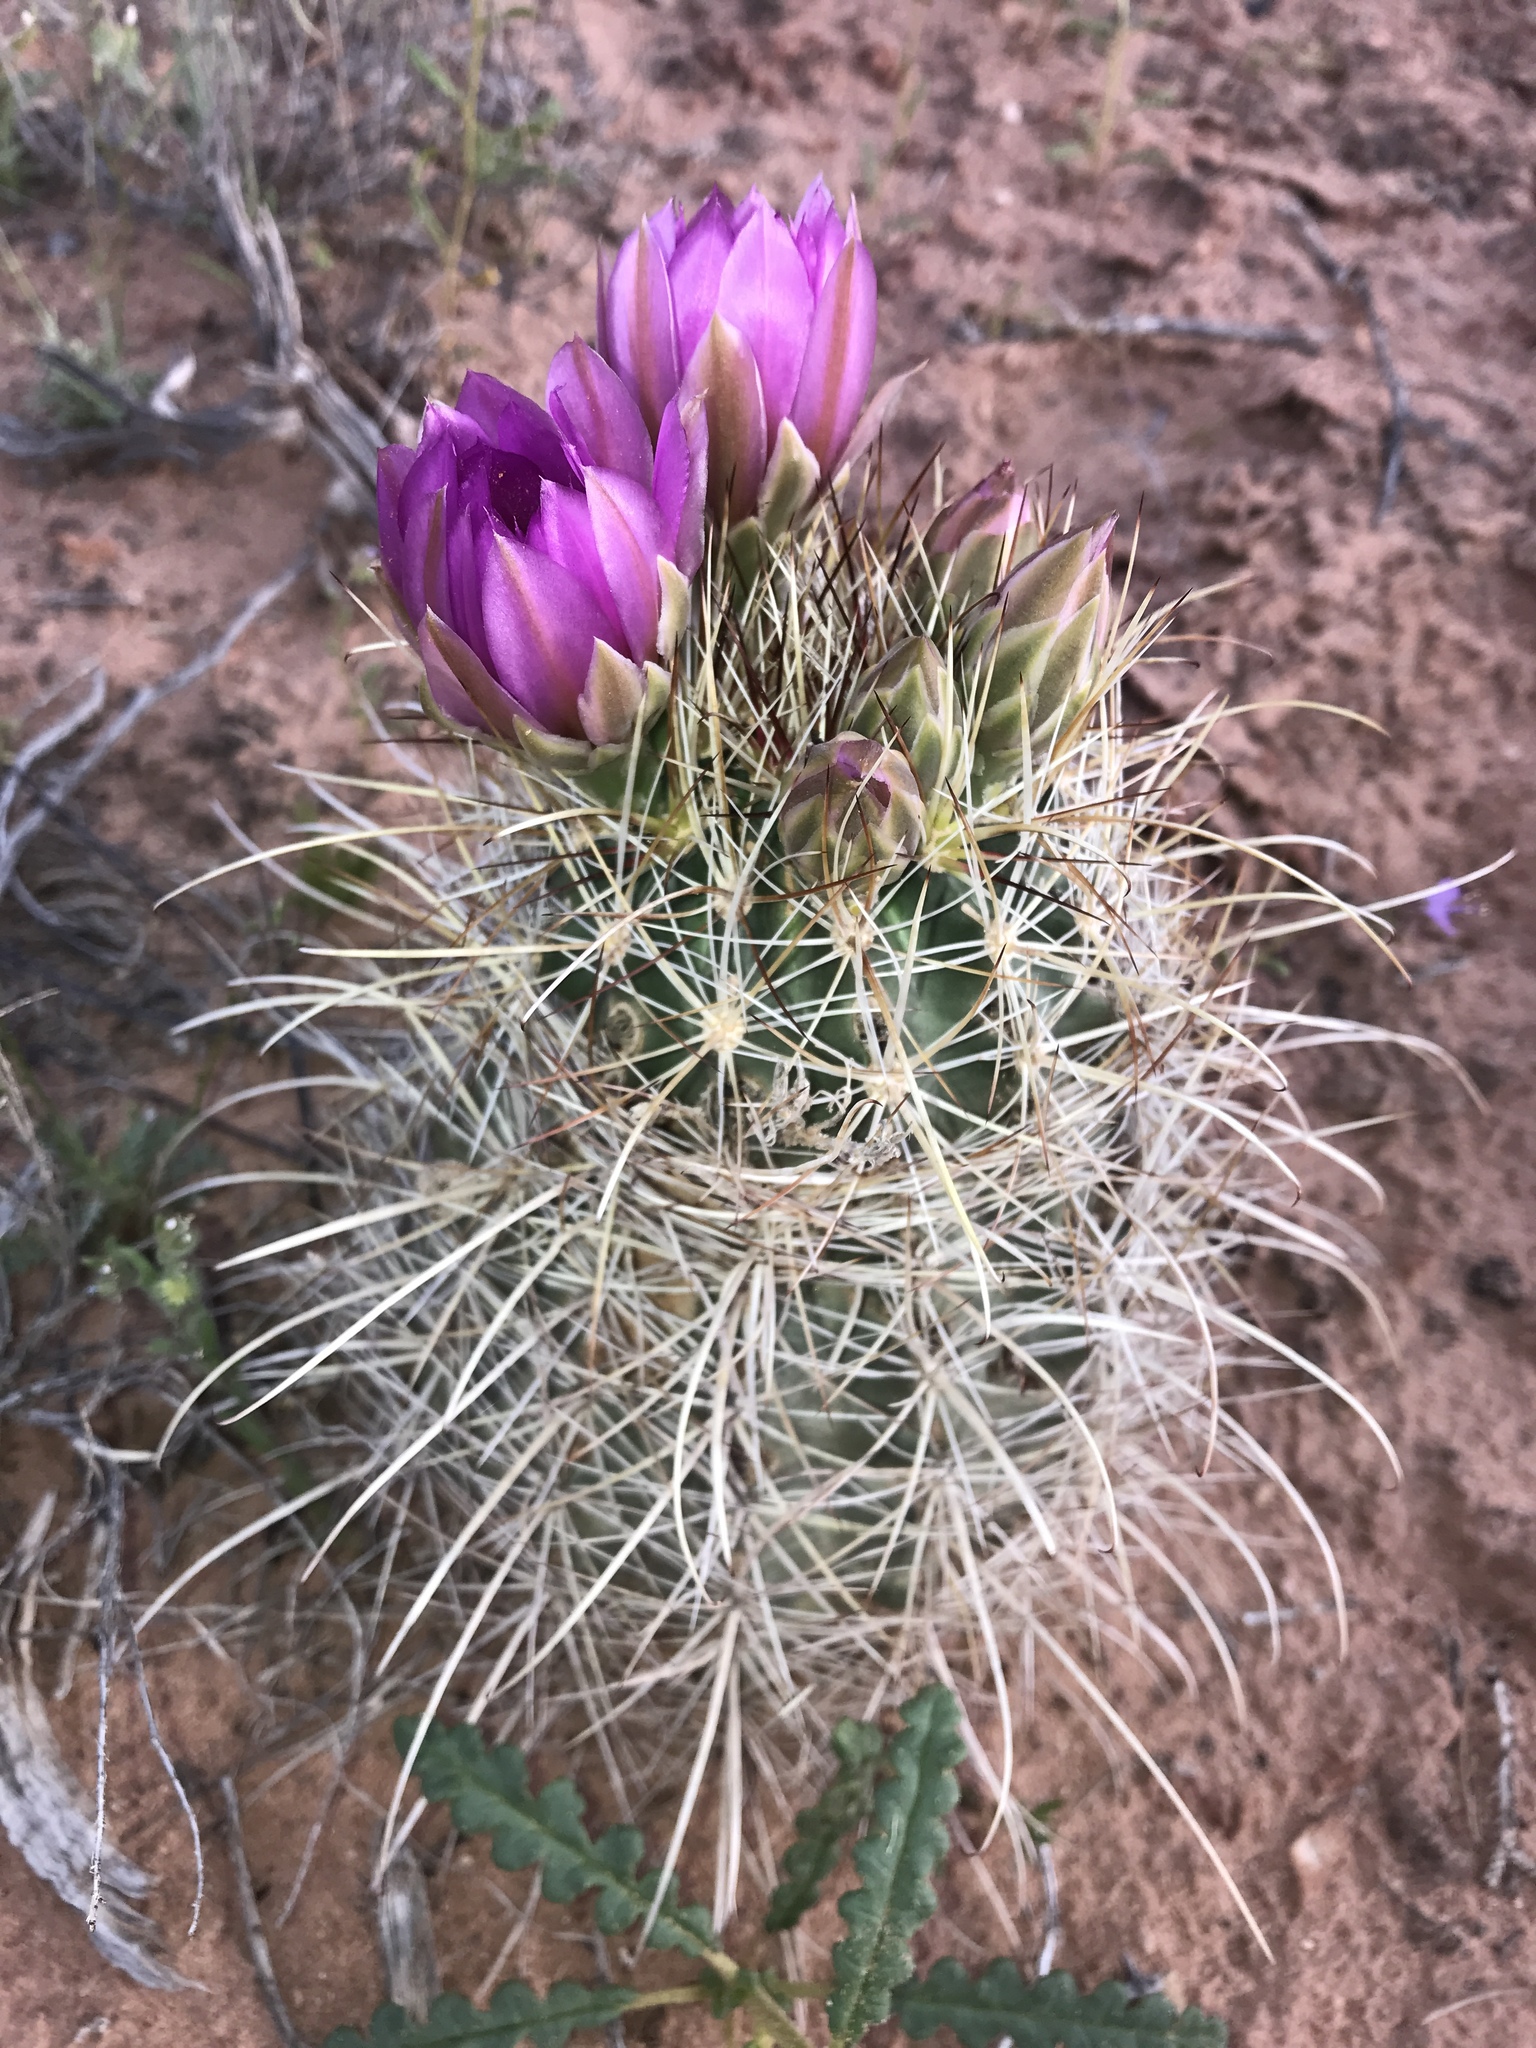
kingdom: Plantae
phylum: Tracheophyta
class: Magnoliopsida
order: Caryophyllales
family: Cactaceae
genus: Sclerocactus
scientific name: Sclerocactus parviflorus
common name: Small-flower fishhook cactus
